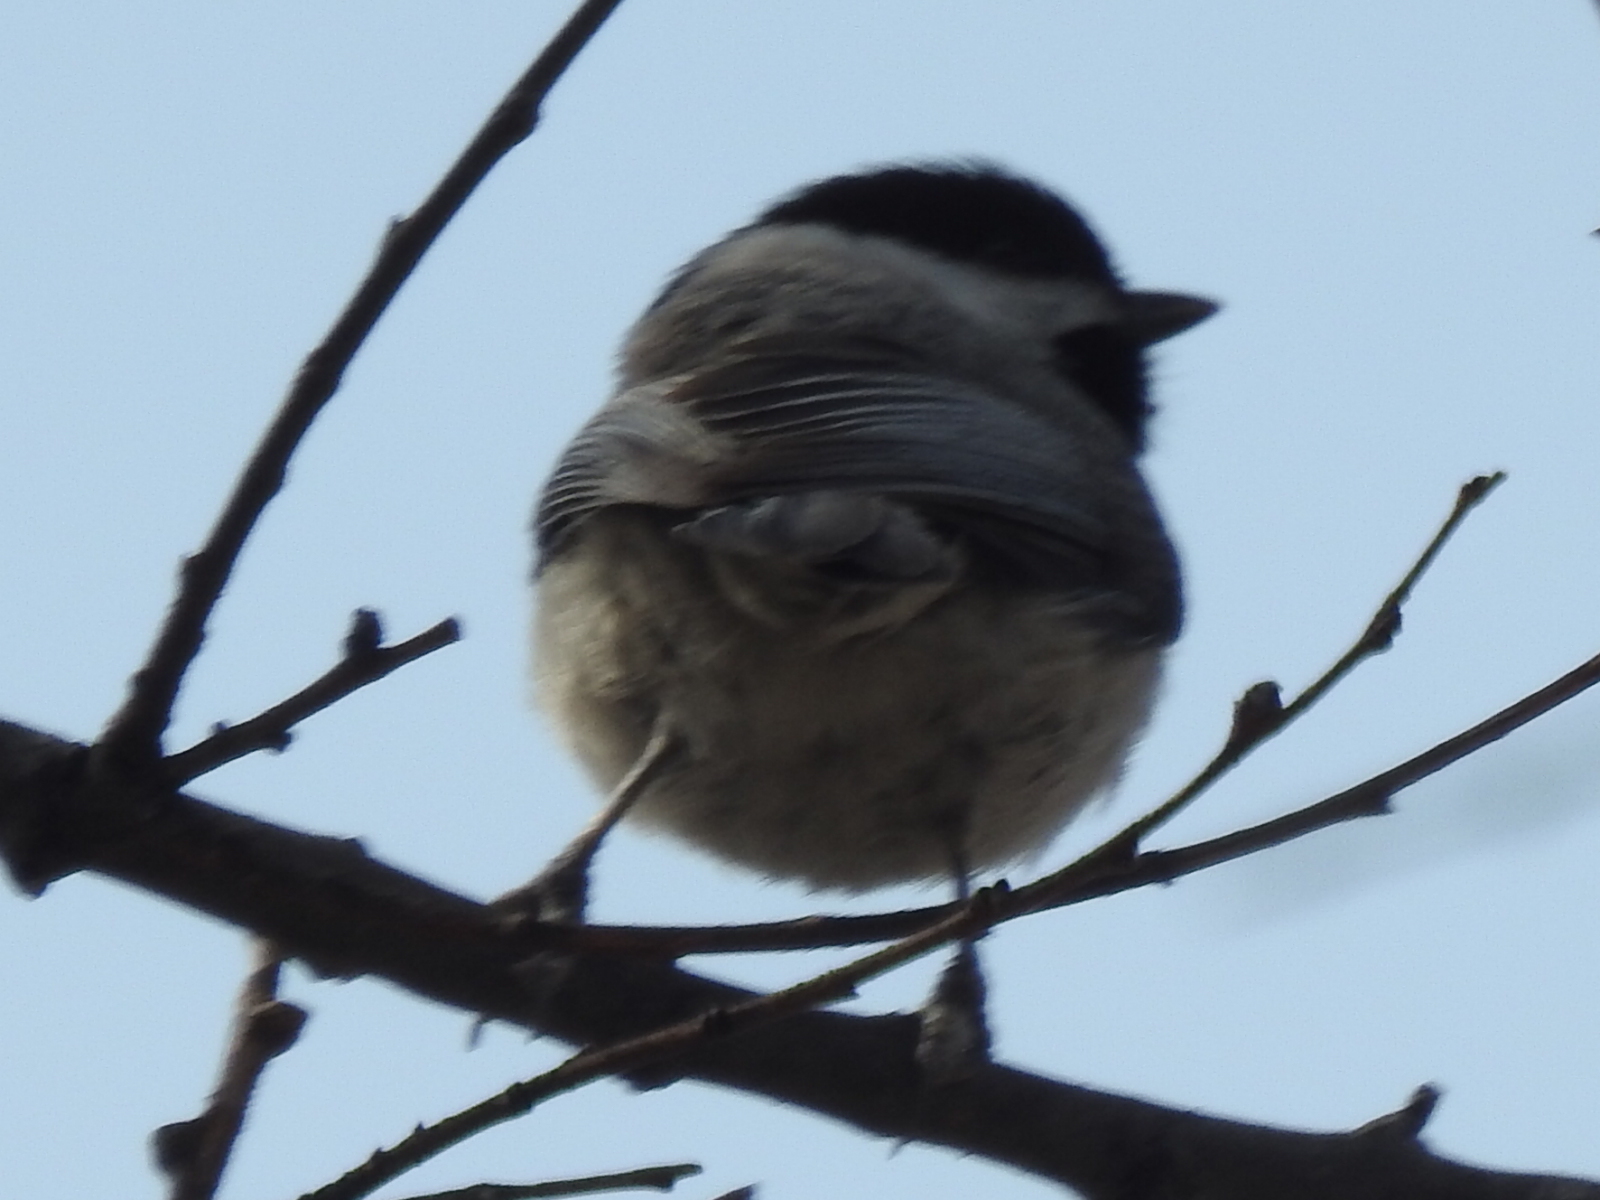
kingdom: Animalia
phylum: Chordata
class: Aves
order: Passeriformes
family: Paridae
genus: Poecile
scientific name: Poecile carolinensis
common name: Carolina chickadee
